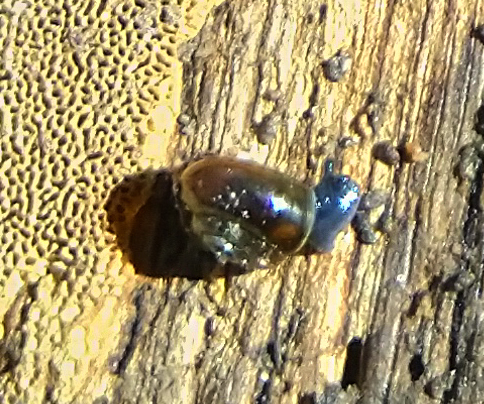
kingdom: Animalia
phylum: Mollusca
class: Gastropoda
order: Stylommatophora
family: Gastrodontidae
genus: Zonitoides
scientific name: Zonitoides nitidus
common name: Shiny glass snail
